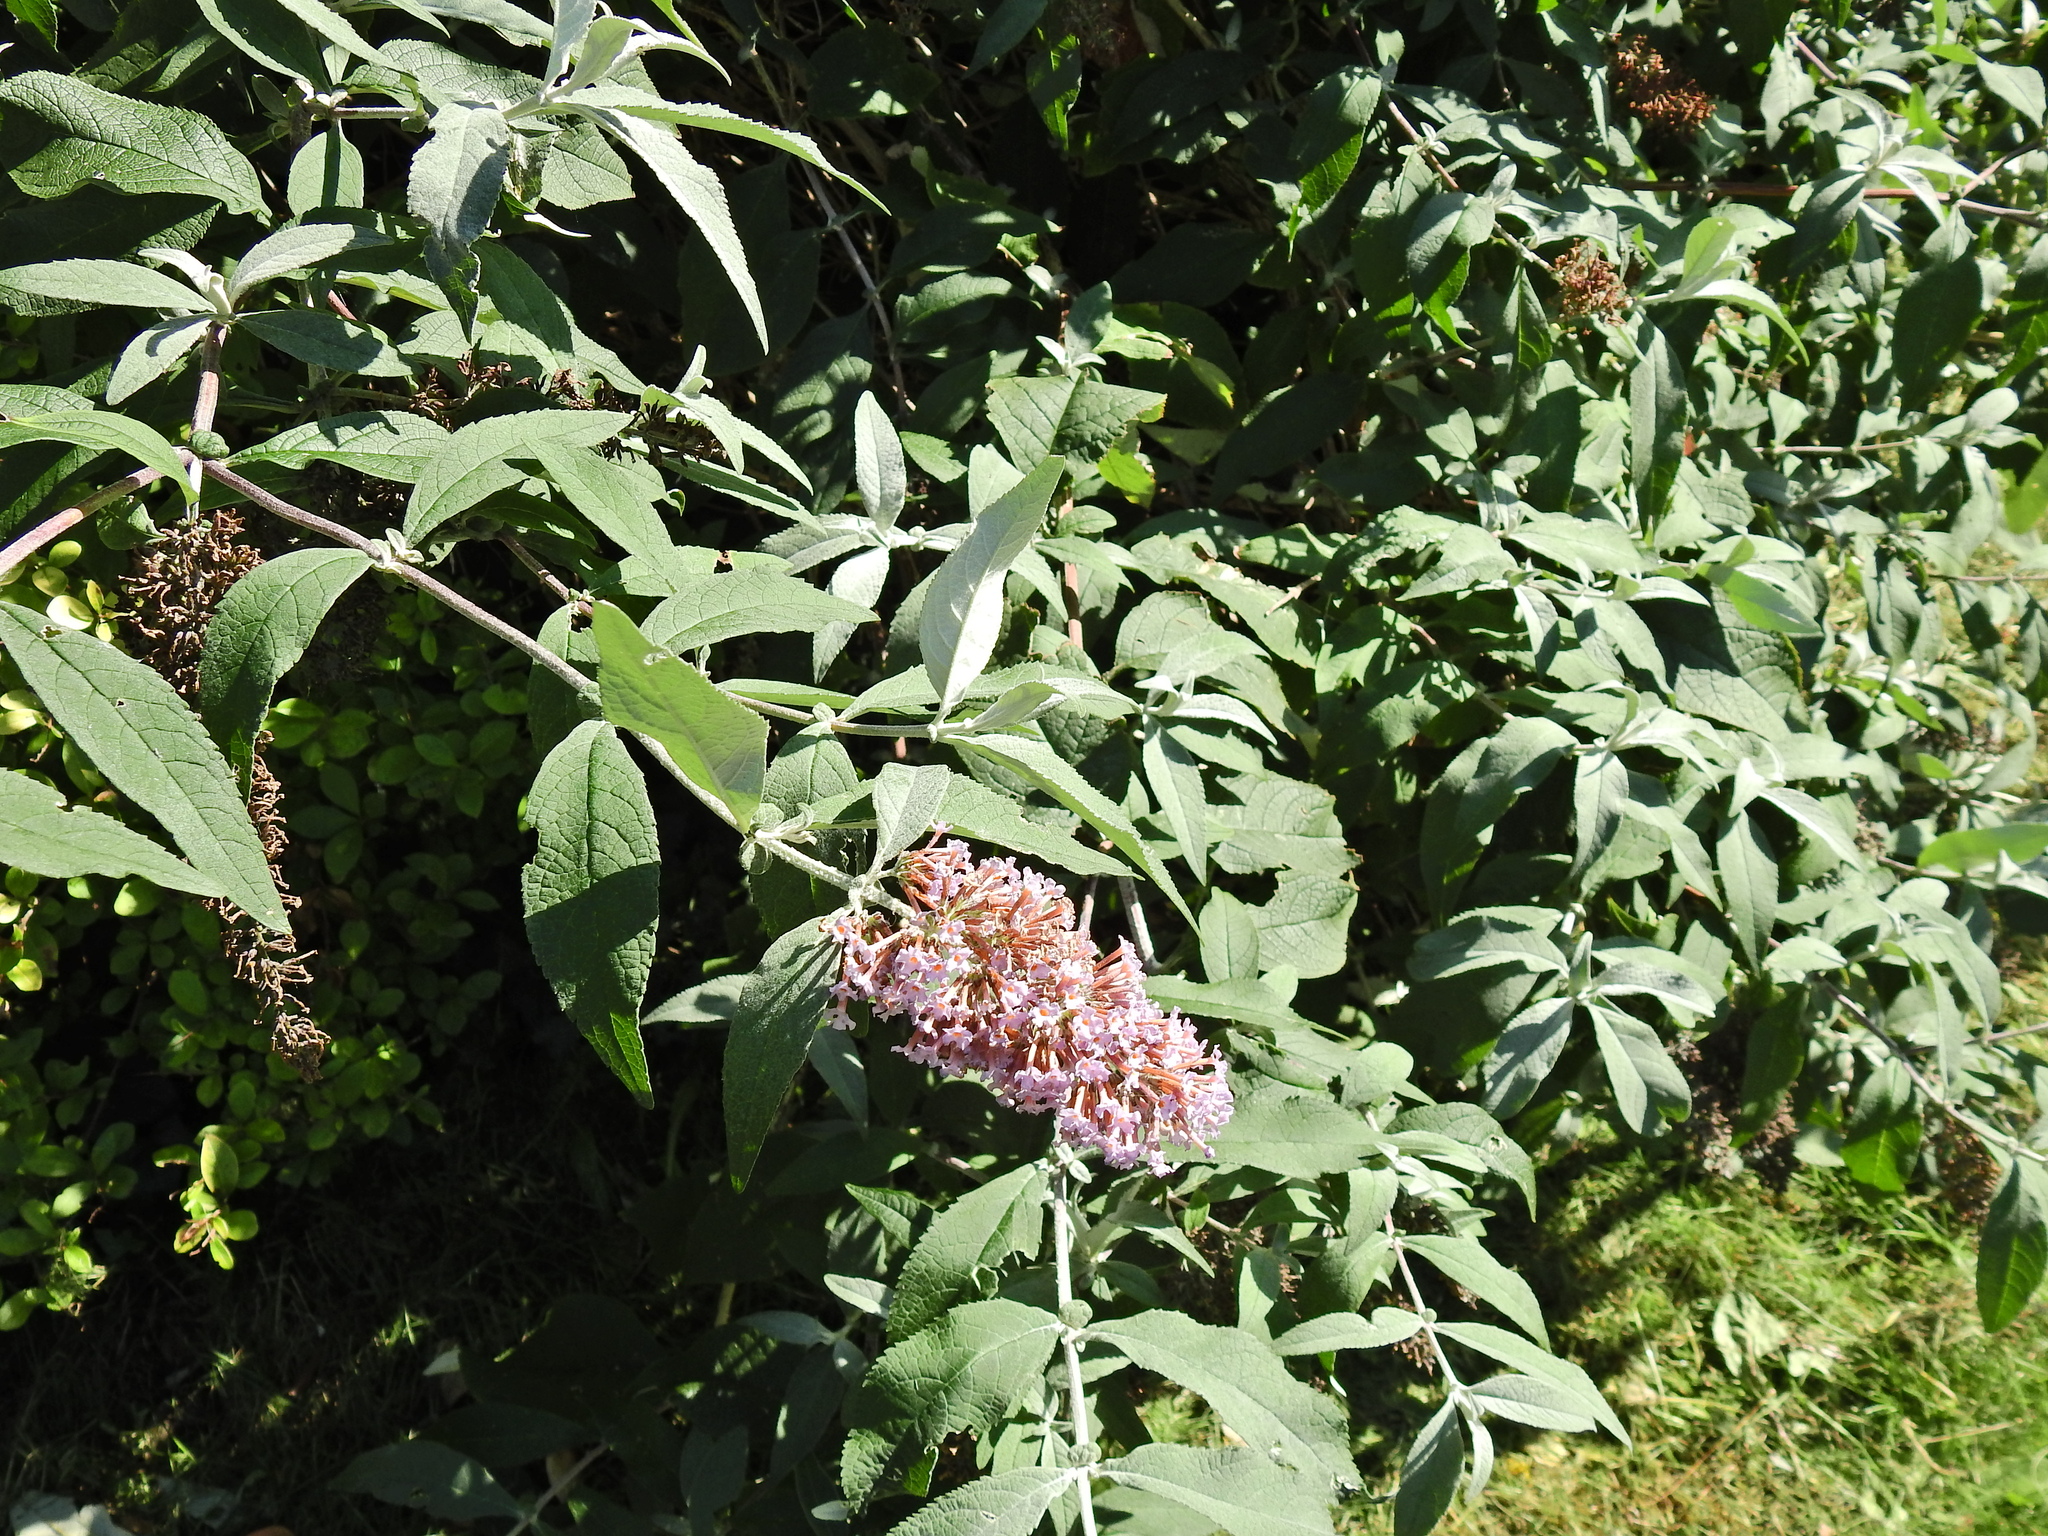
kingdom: Plantae
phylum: Tracheophyta
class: Magnoliopsida
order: Lamiales
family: Scrophulariaceae
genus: Buddleja
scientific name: Buddleja davidii
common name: Butterfly-bush
